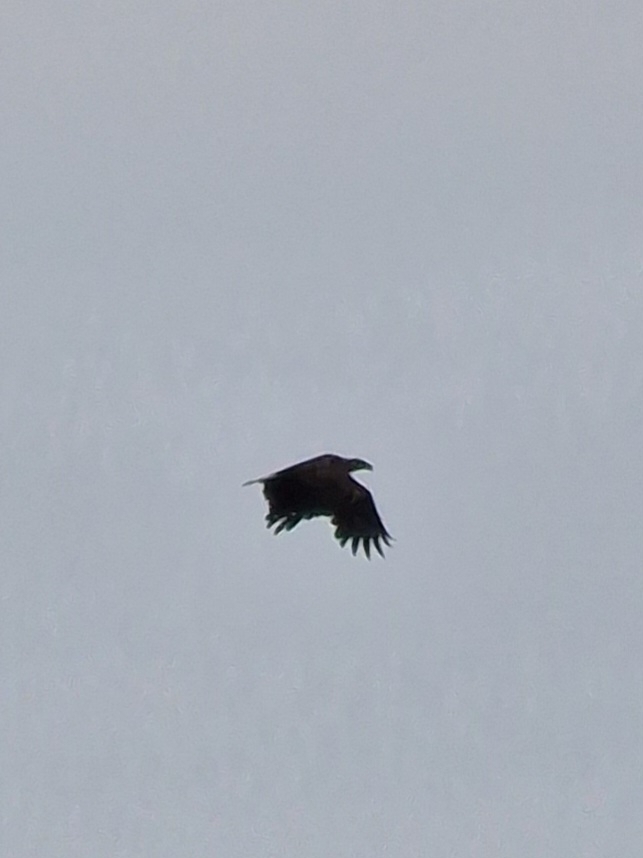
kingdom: Animalia
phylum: Chordata
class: Aves
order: Accipitriformes
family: Accipitridae
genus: Haliaeetus
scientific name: Haliaeetus albicilla
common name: White-tailed eagle
